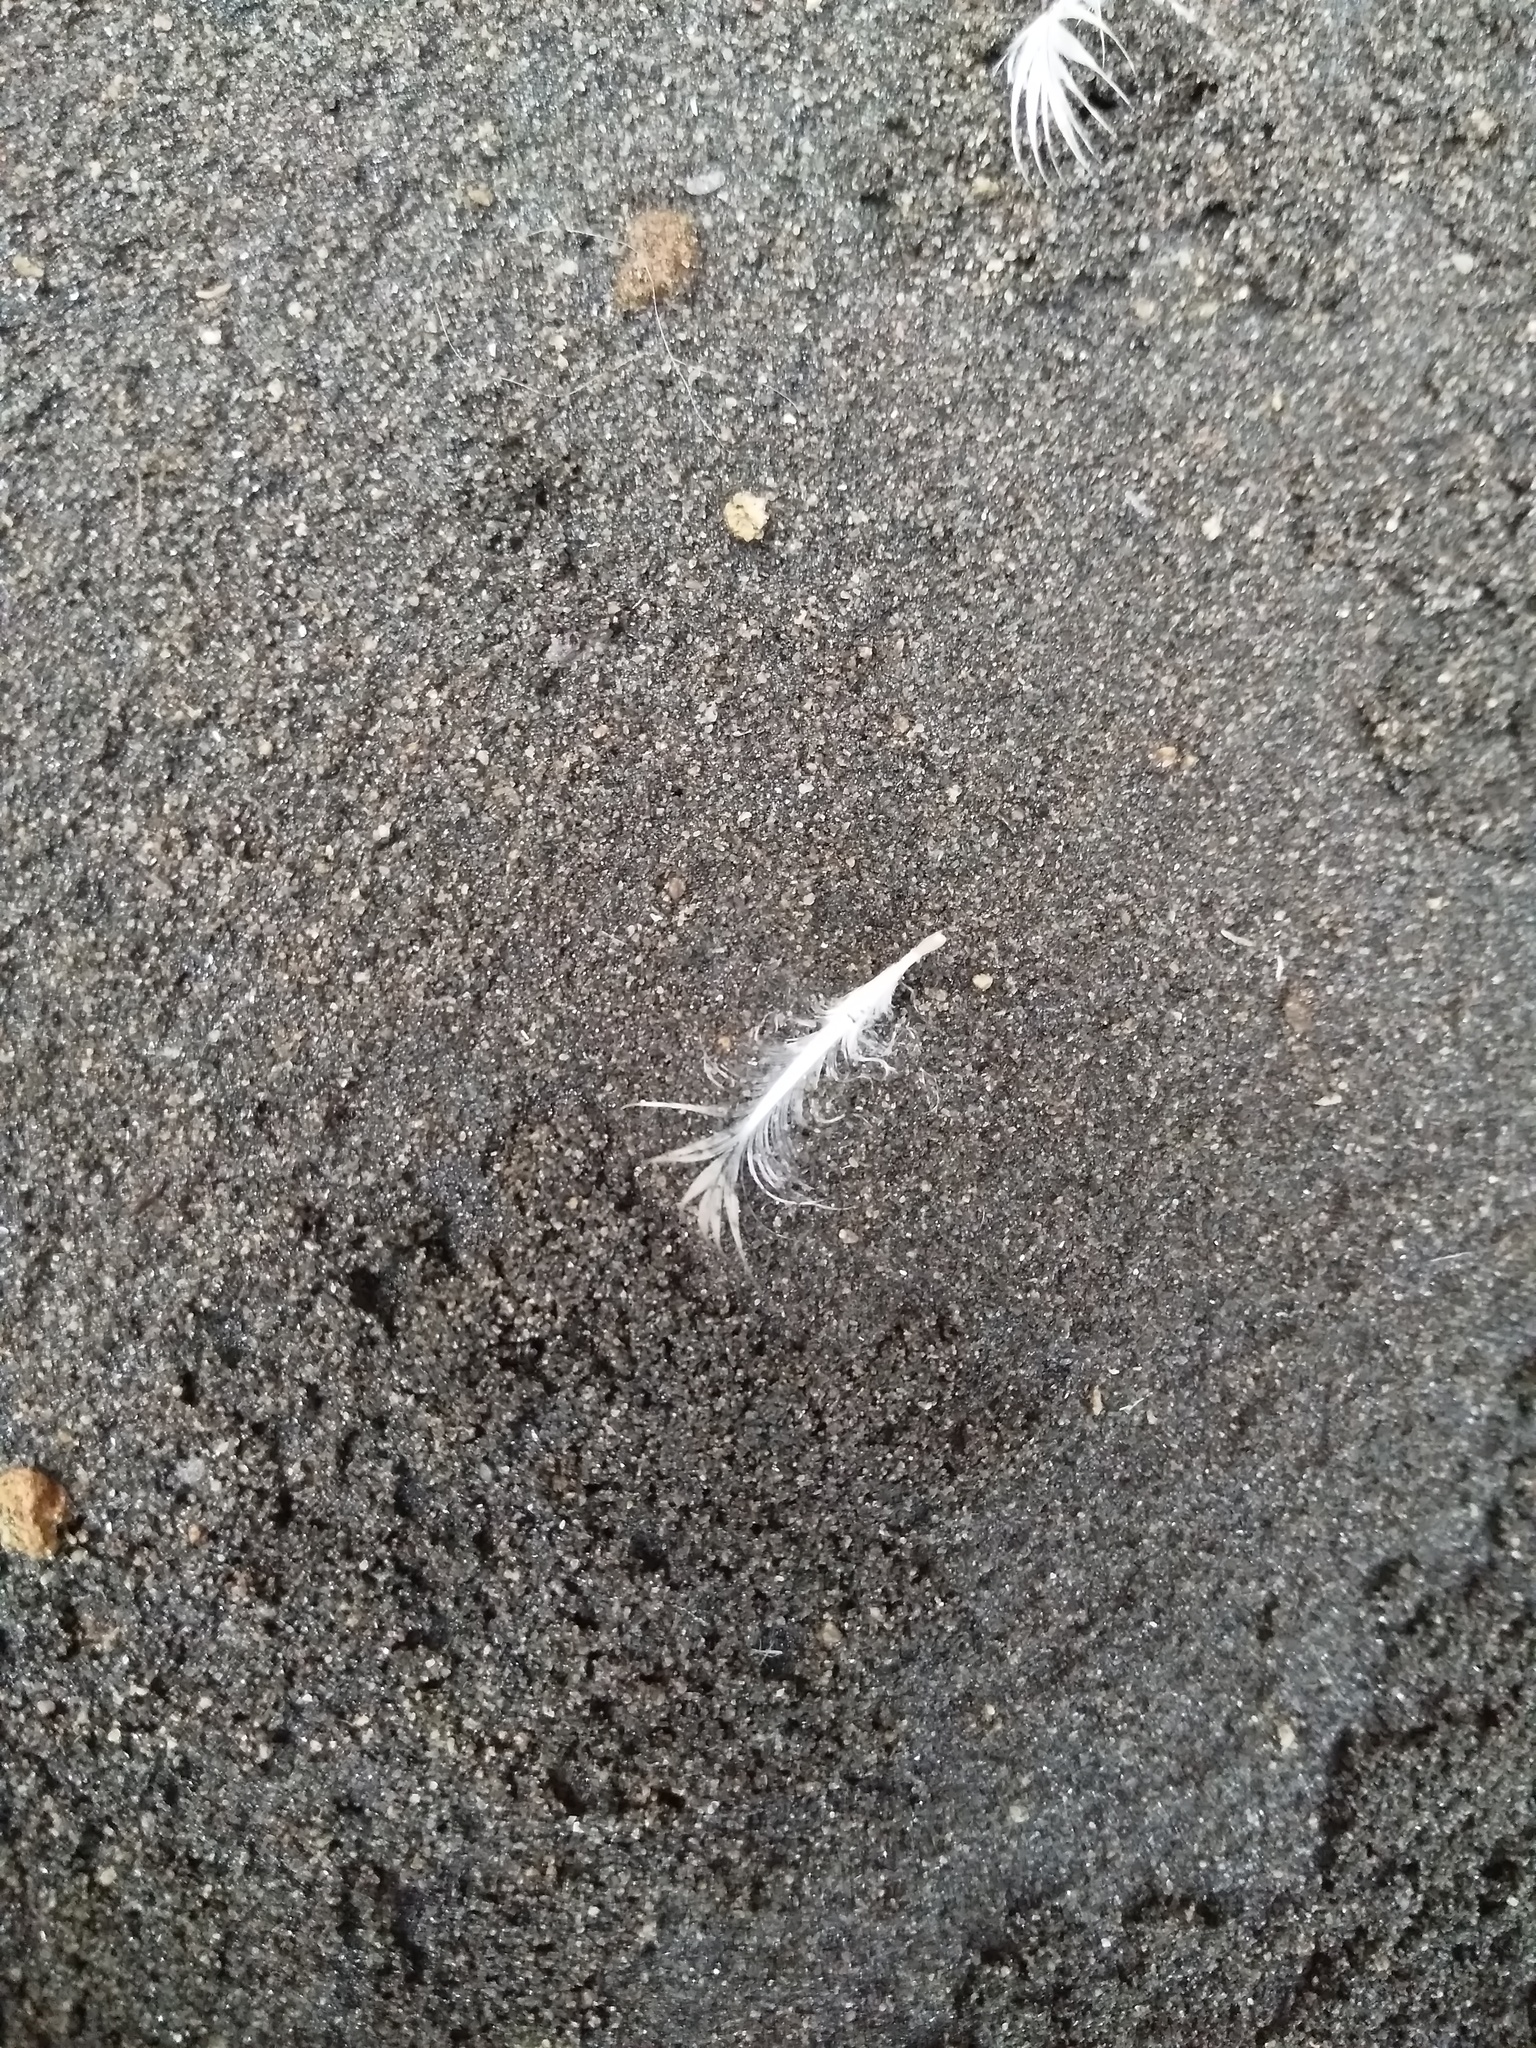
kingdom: Animalia
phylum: Chordata
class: Aves
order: Sphenisciformes
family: Spheniscidae
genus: Eudyptula
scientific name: Eudyptula minor
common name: Little penguin
